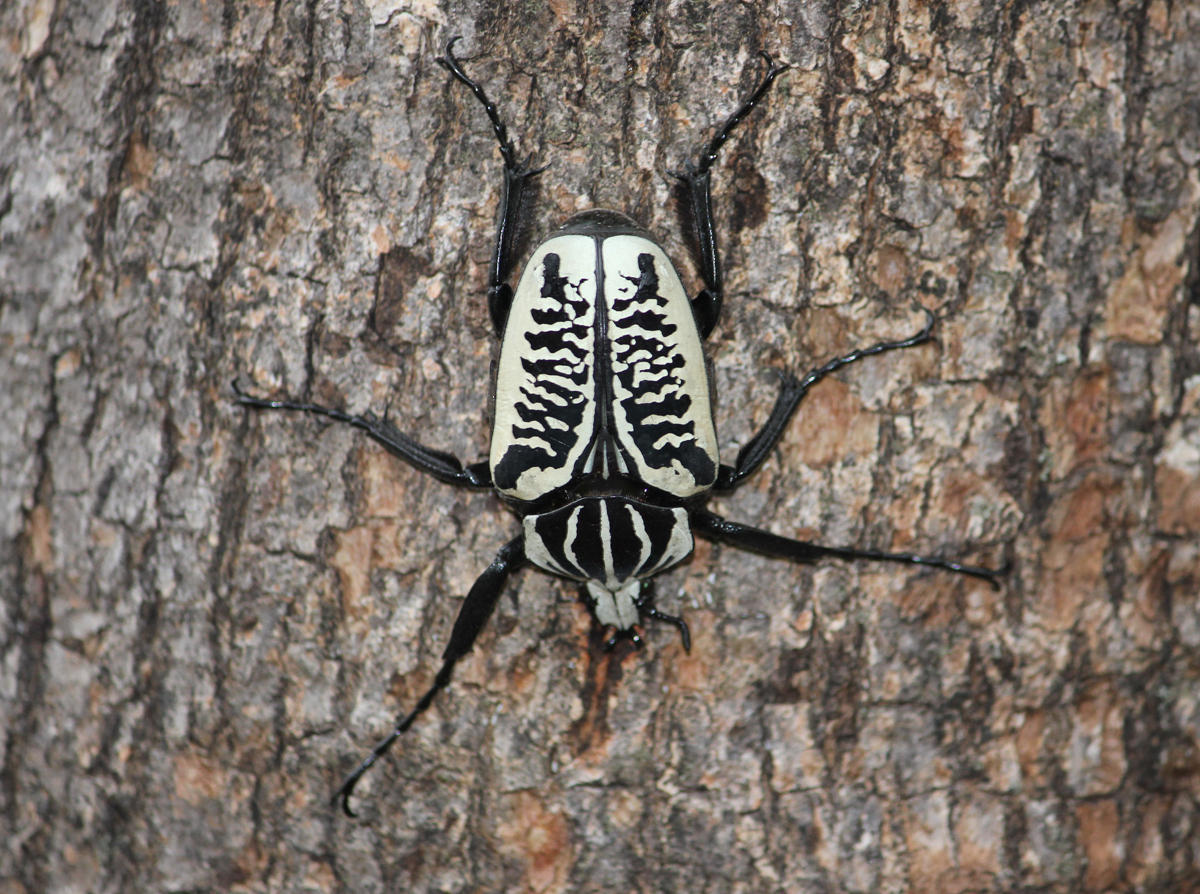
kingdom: Animalia
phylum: Arthropoda
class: Insecta
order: Coleoptera
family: Scarabaeidae
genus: Goliathus
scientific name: Goliathus albosignatus
